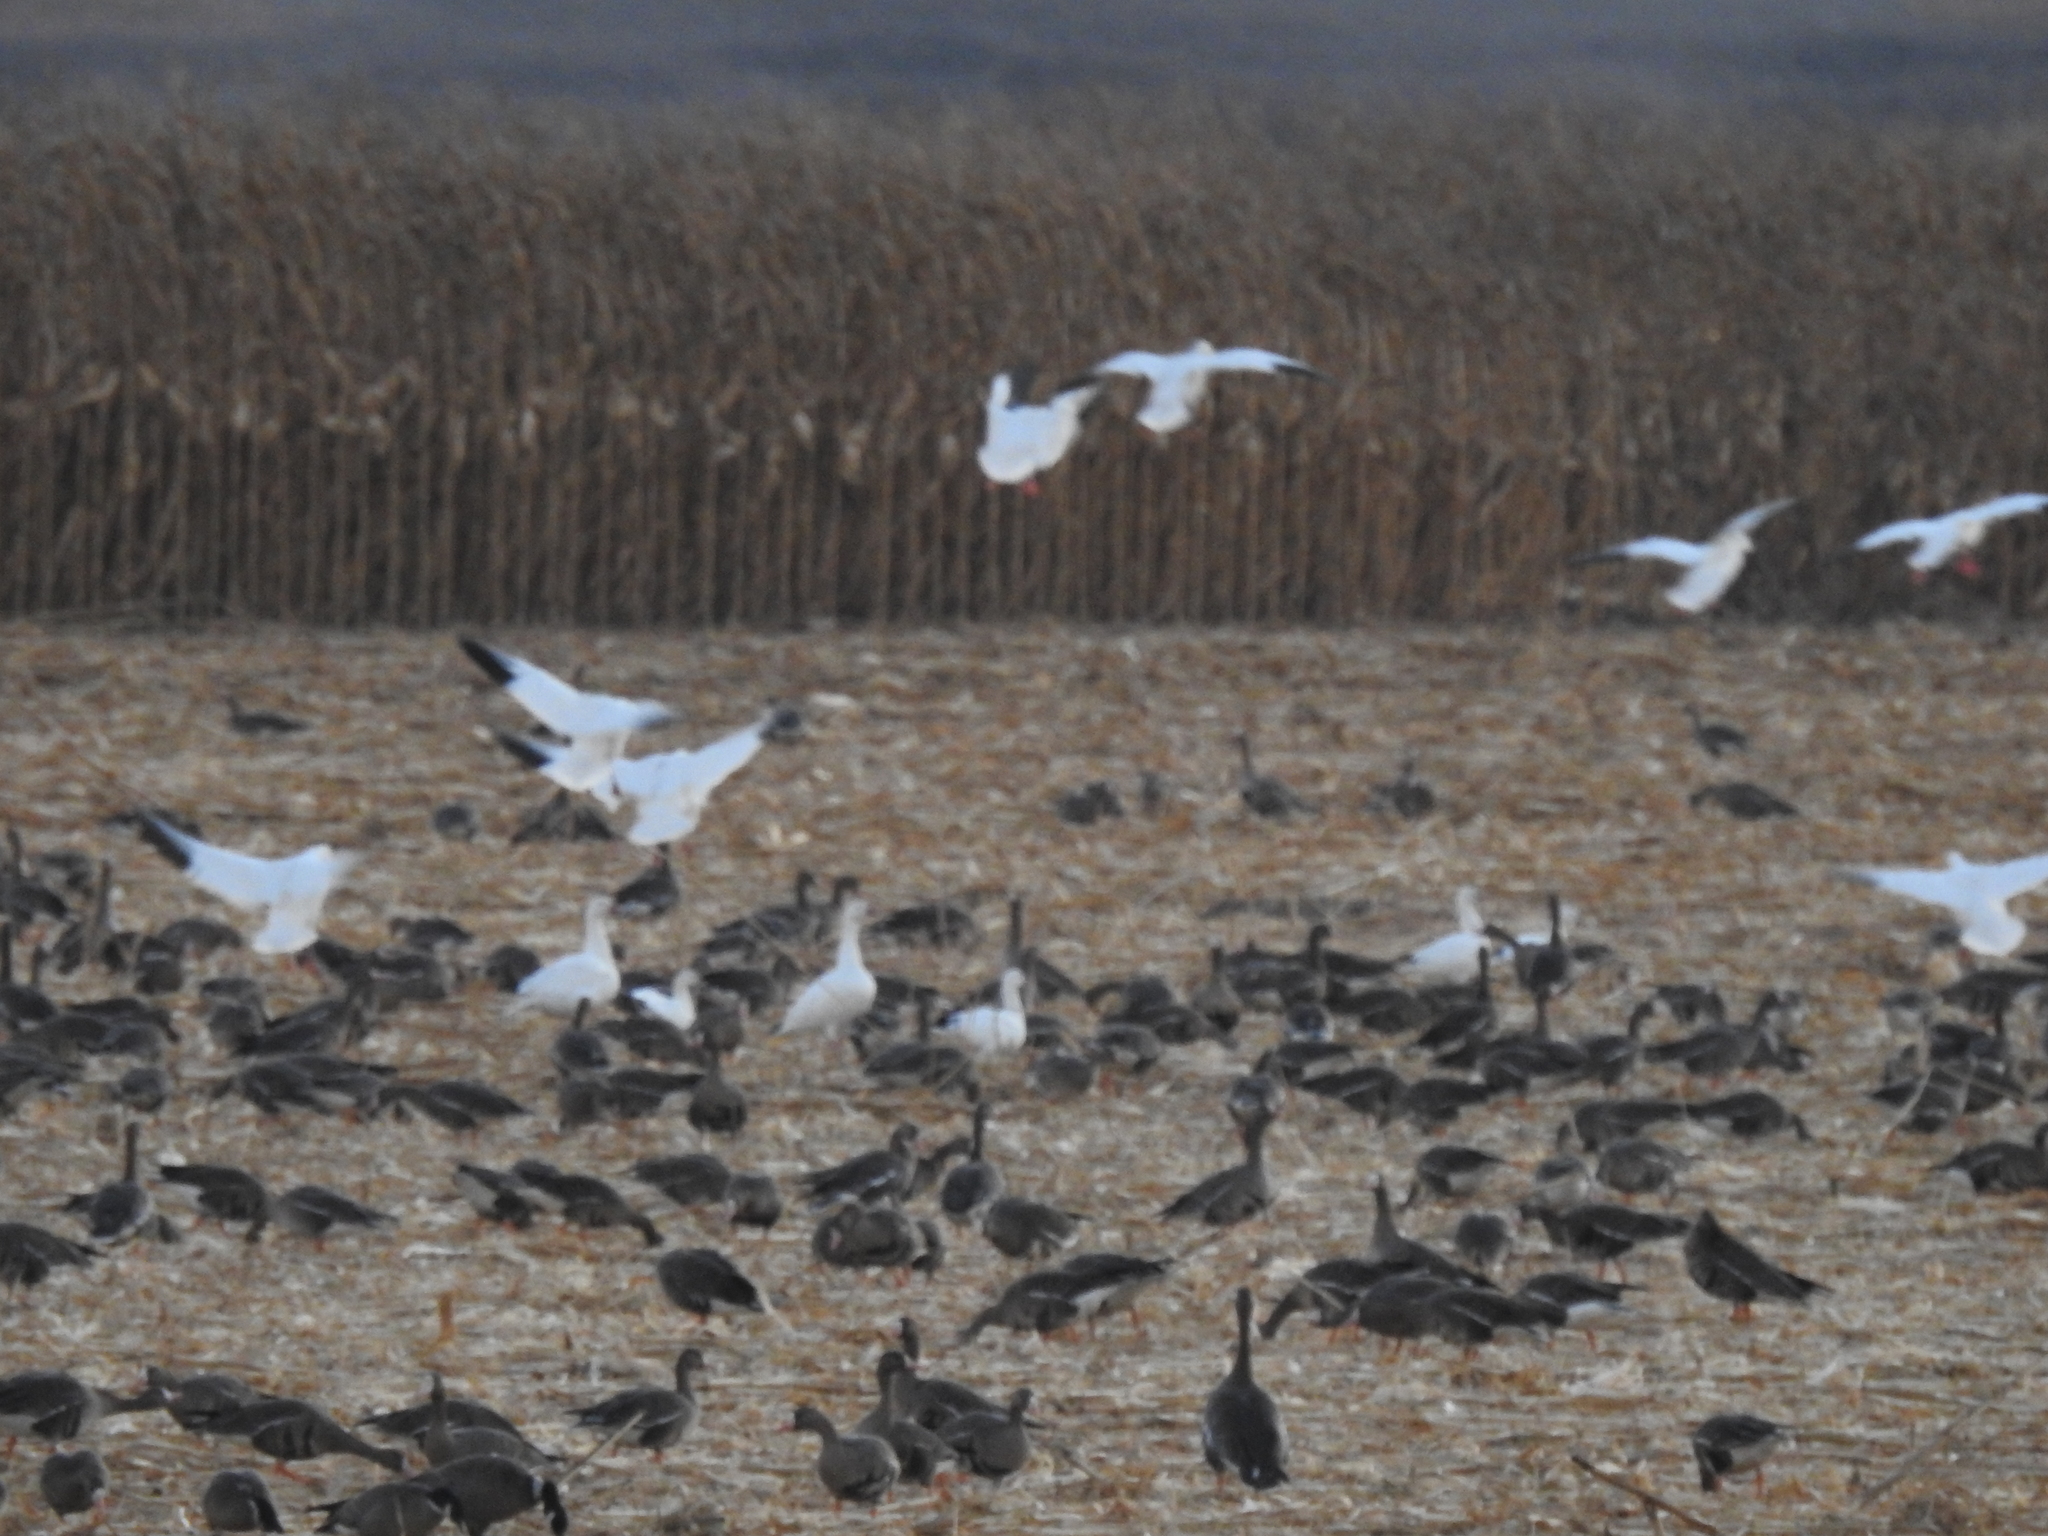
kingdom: Animalia
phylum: Chordata
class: Aves
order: Anseriformes
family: Anatidae
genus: Anser
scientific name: Anser caerulescens
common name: Snow goose
